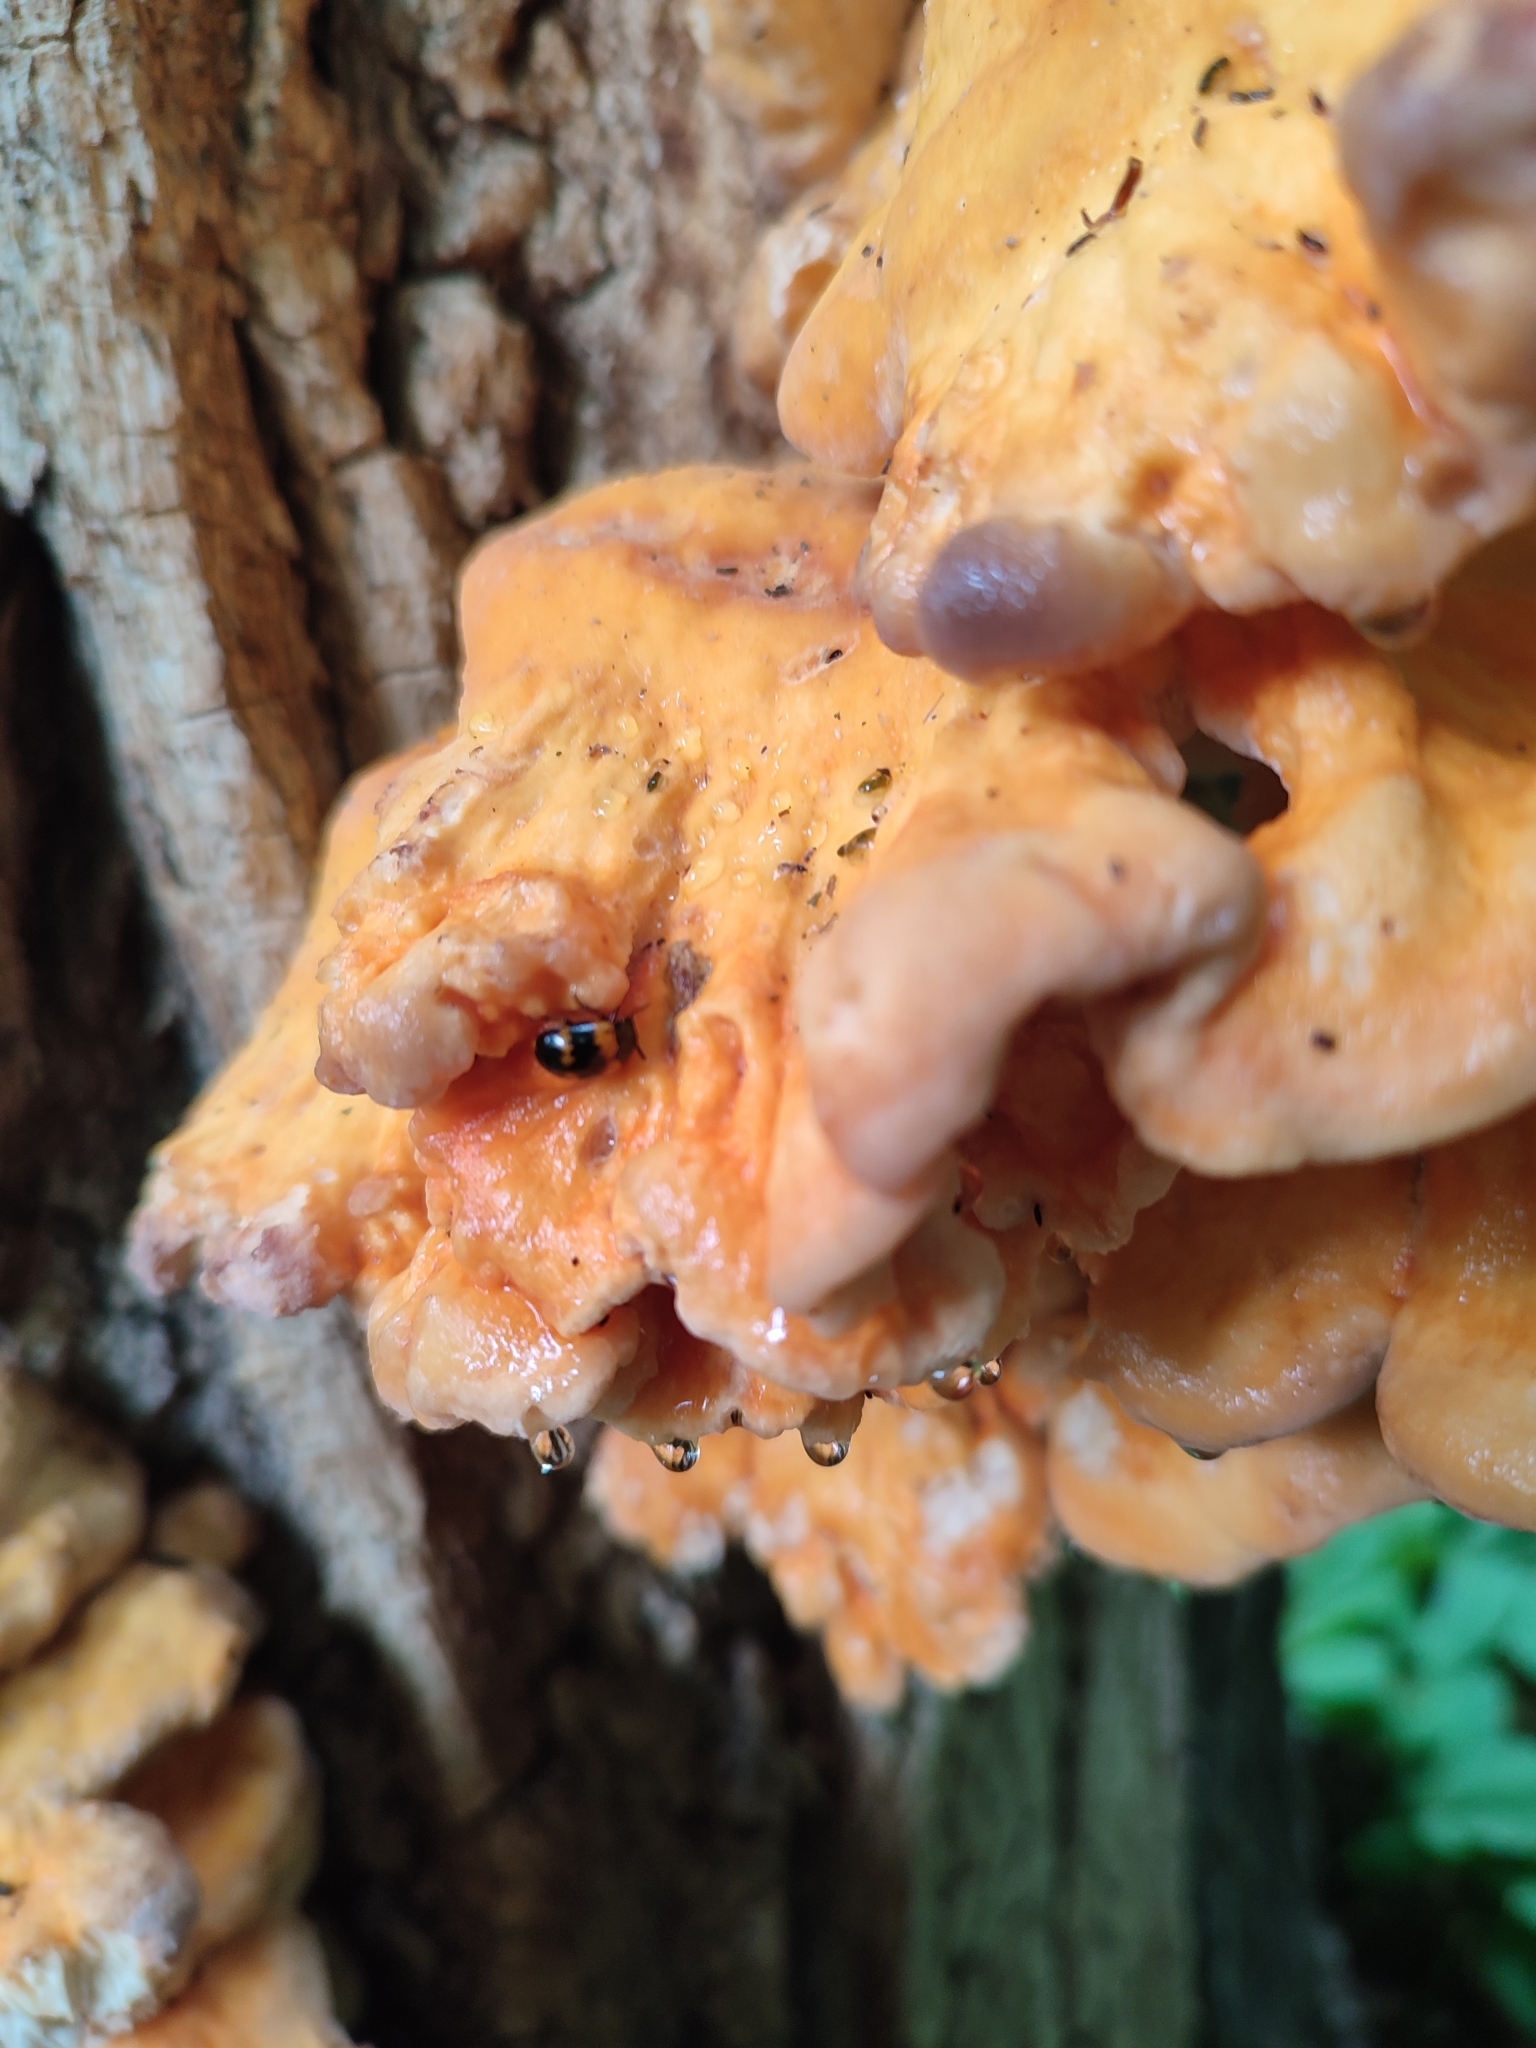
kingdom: Animalia
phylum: Arthropoda
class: Insecta
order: Coleoptera
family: Tenebrionidae
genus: Diaperis
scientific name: Diaperis boleti
